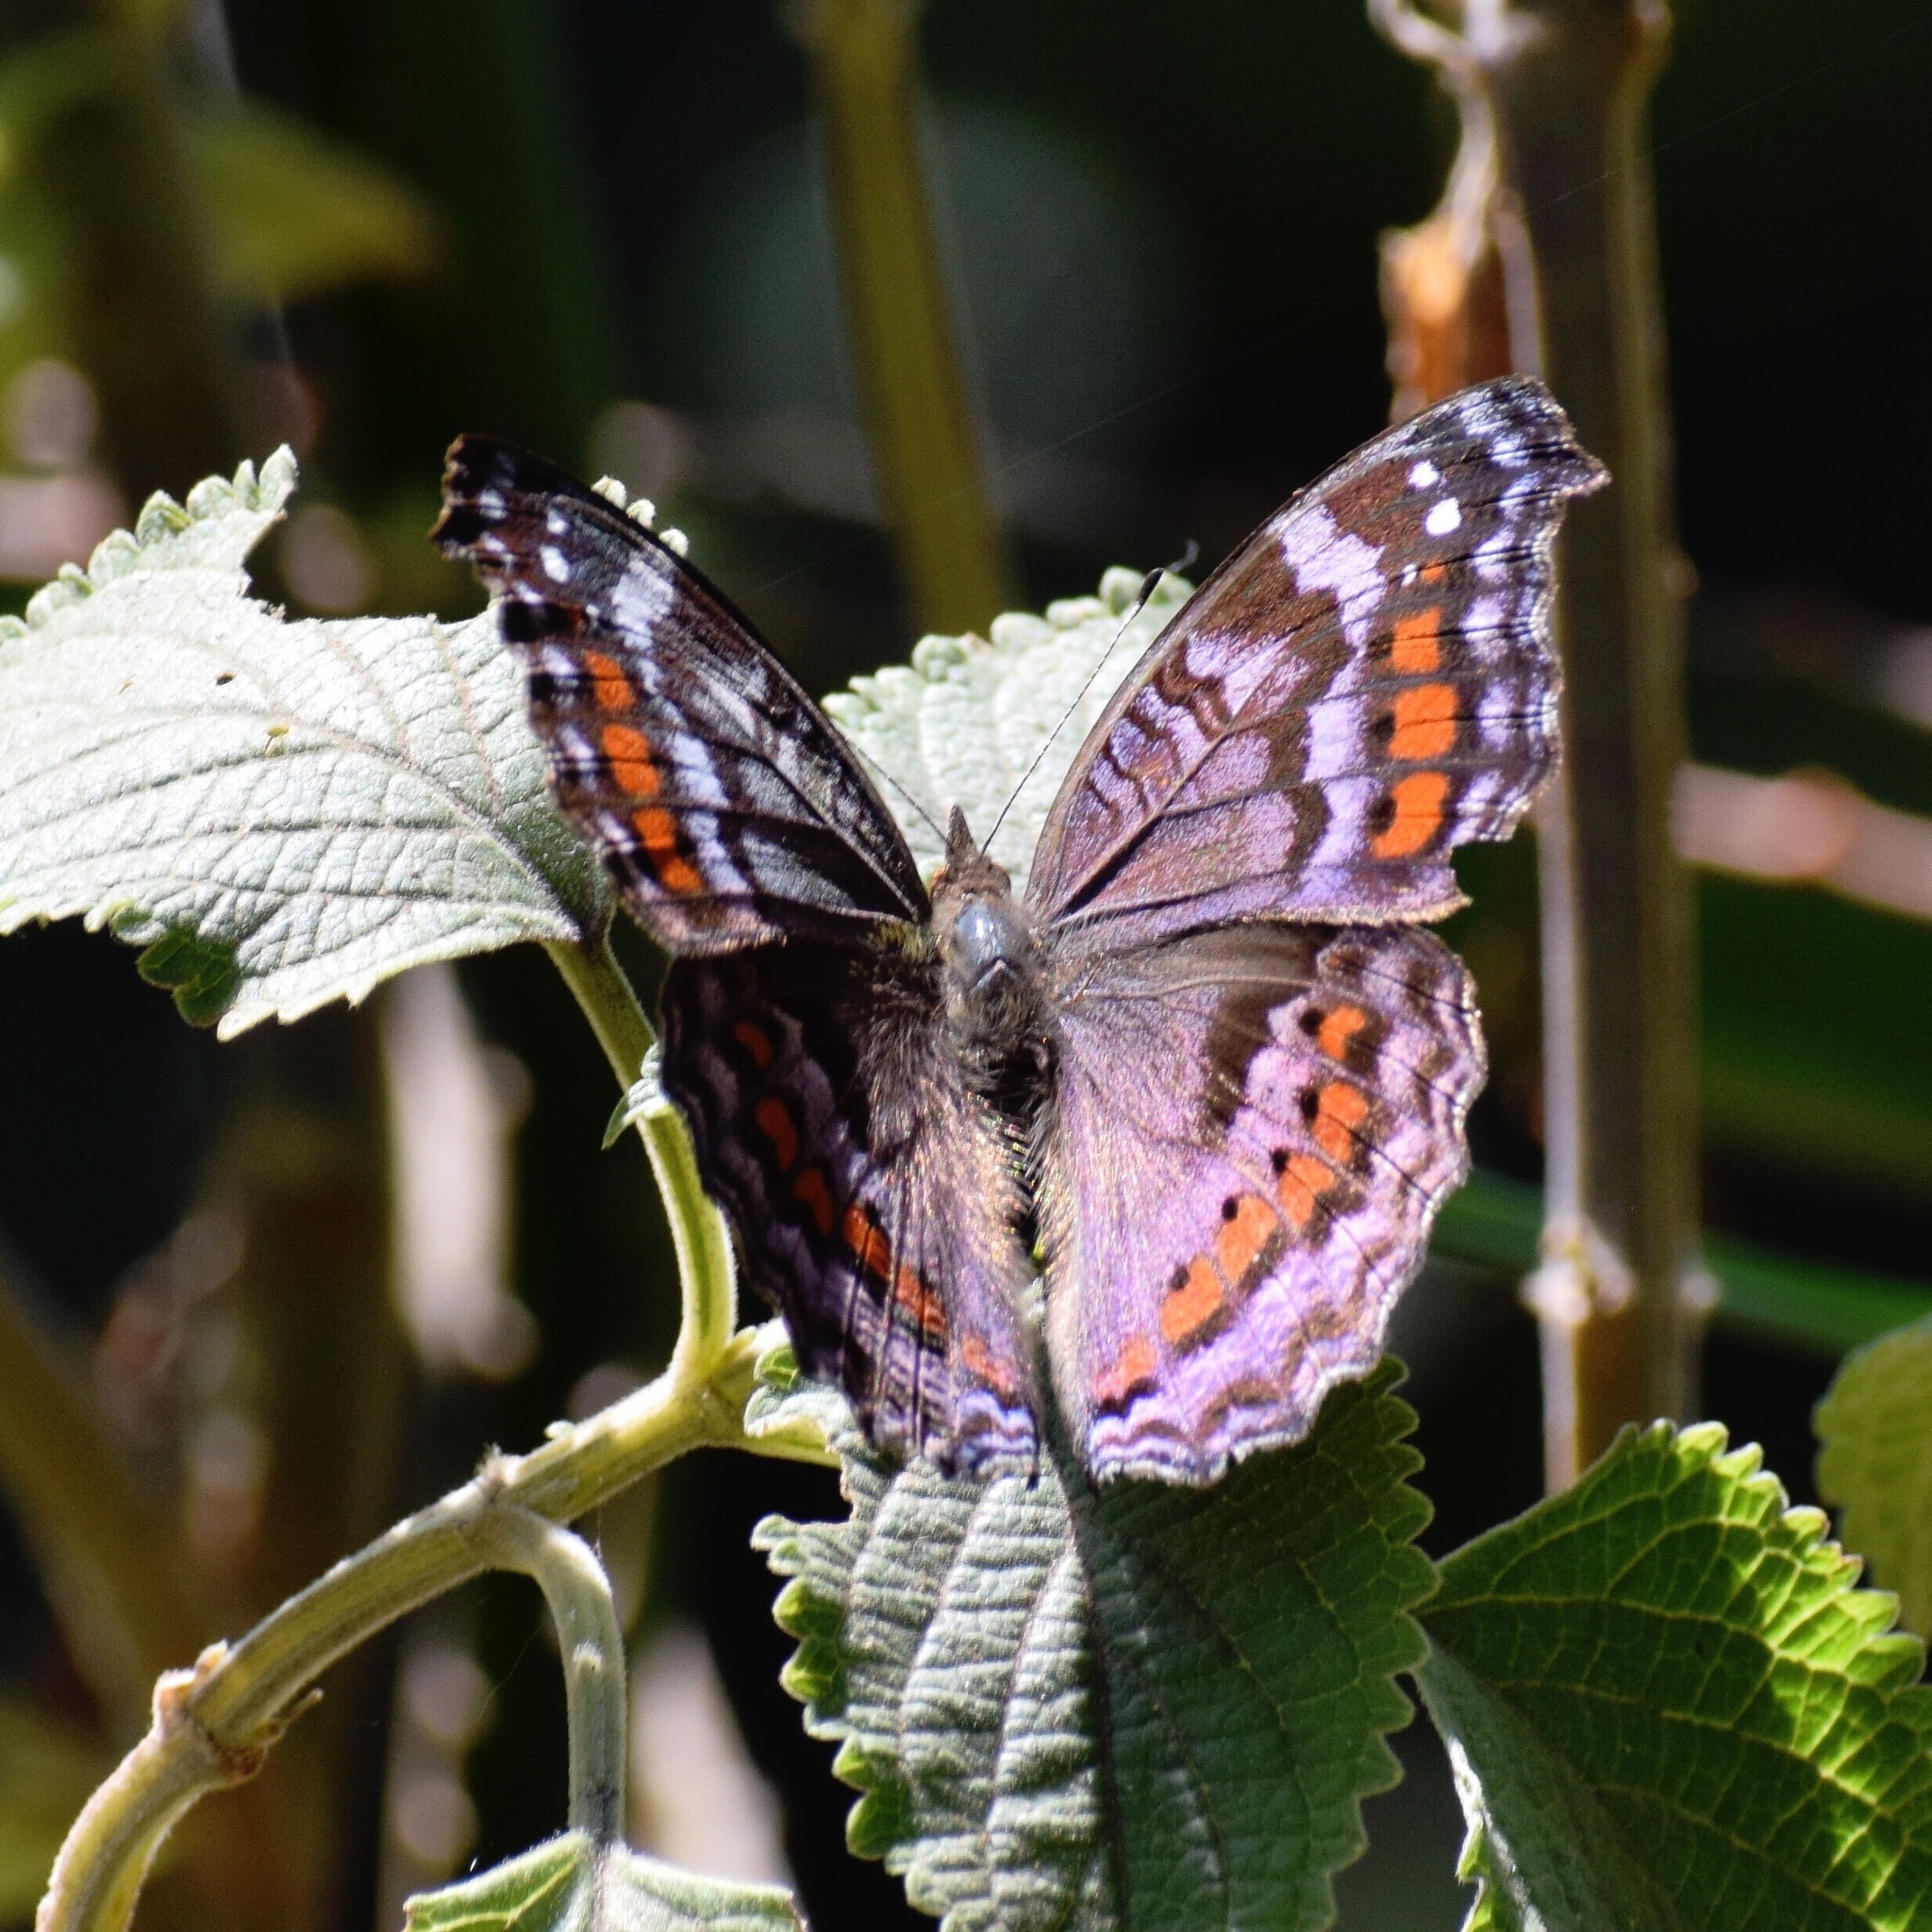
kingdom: Animalia
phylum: Arthropoda
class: Insecta
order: Lepidoptera
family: Nymphalidae
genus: Precis
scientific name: Precis octavia
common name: Gaudy commodore
